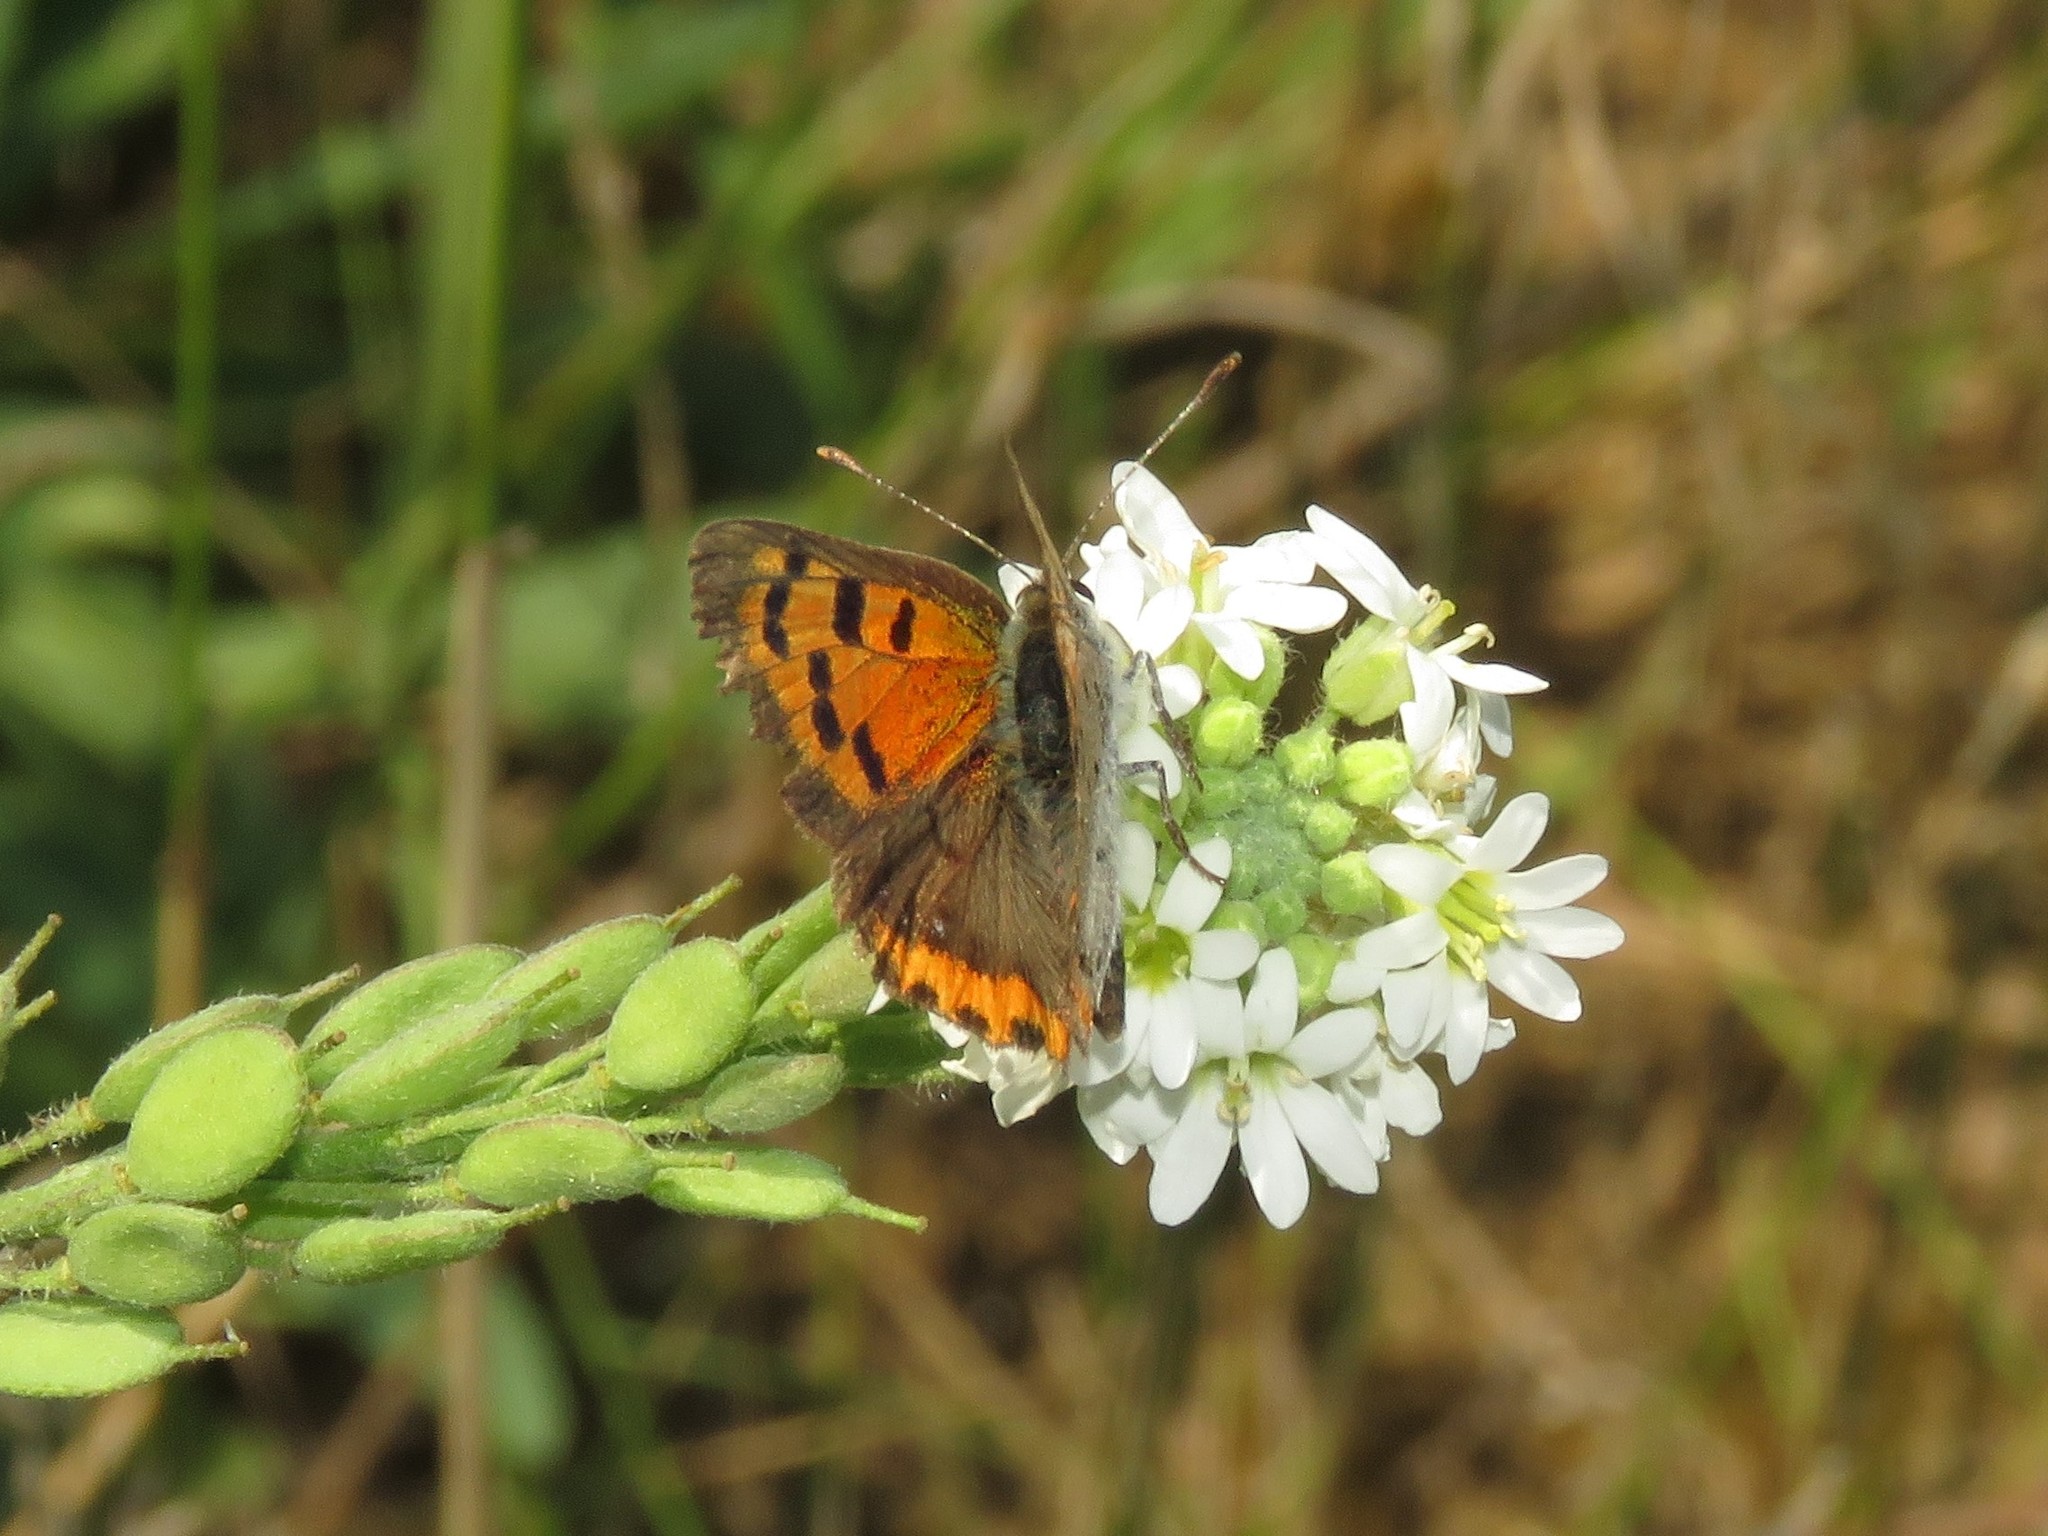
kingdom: Animalia
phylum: Arthropoda
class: Insecta
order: Lepidoptera
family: Lycaenidae
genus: Lycaena
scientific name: Lycaena hypophlaeas
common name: American copper
